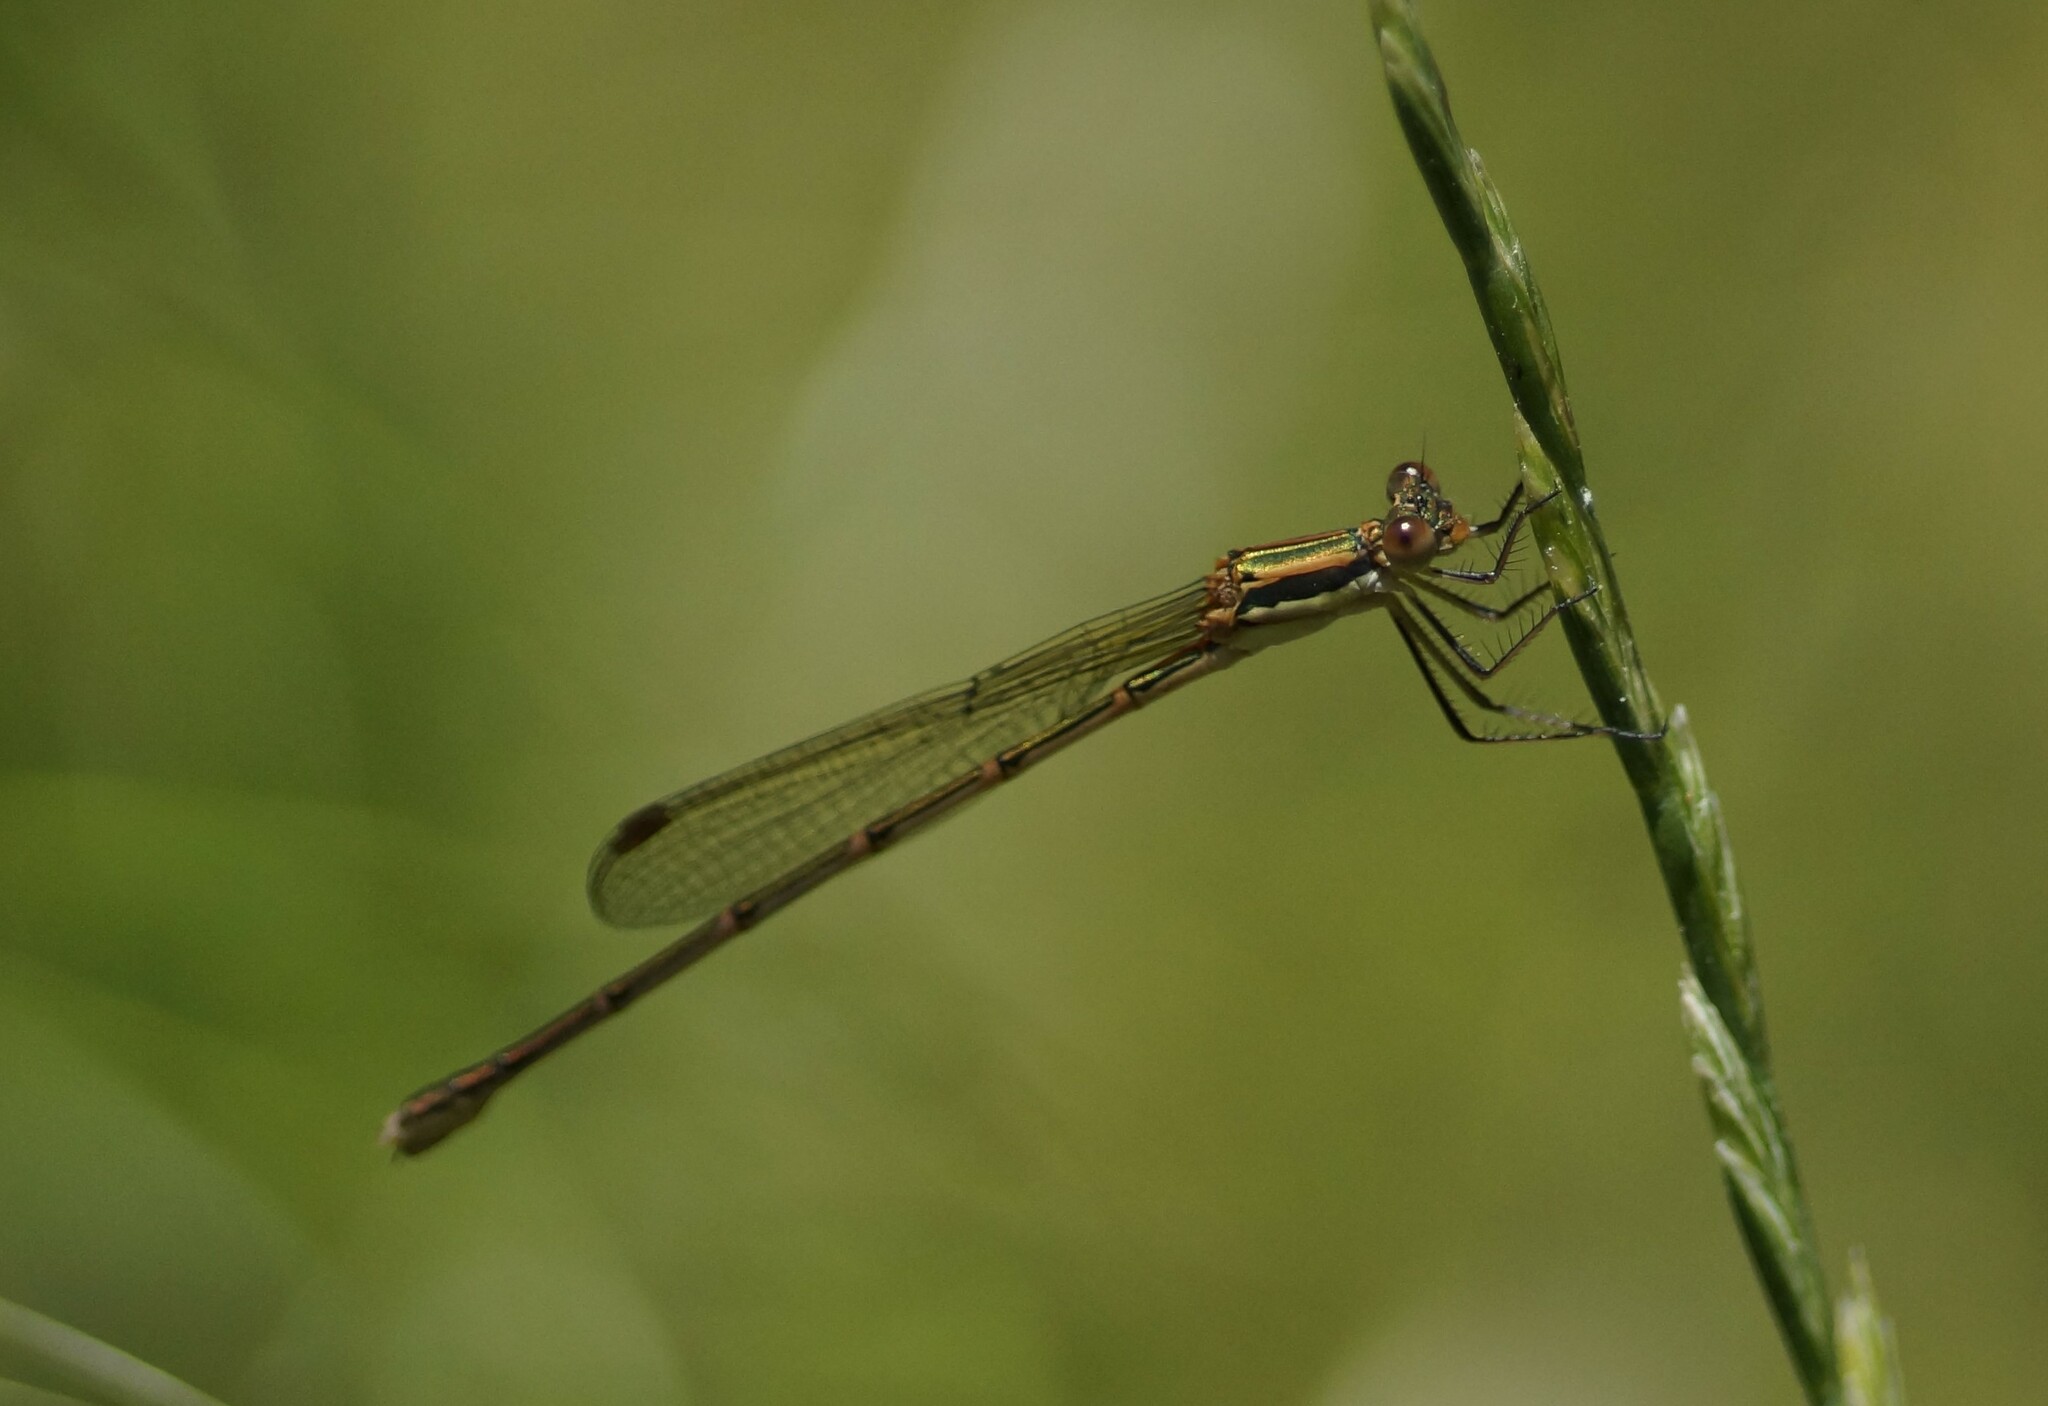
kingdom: Animalia
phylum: Arthropoda
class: Insecta
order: Odonata
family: Lestidae
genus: Austrolestes
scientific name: Austrolestes analis
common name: Slender ringtail
